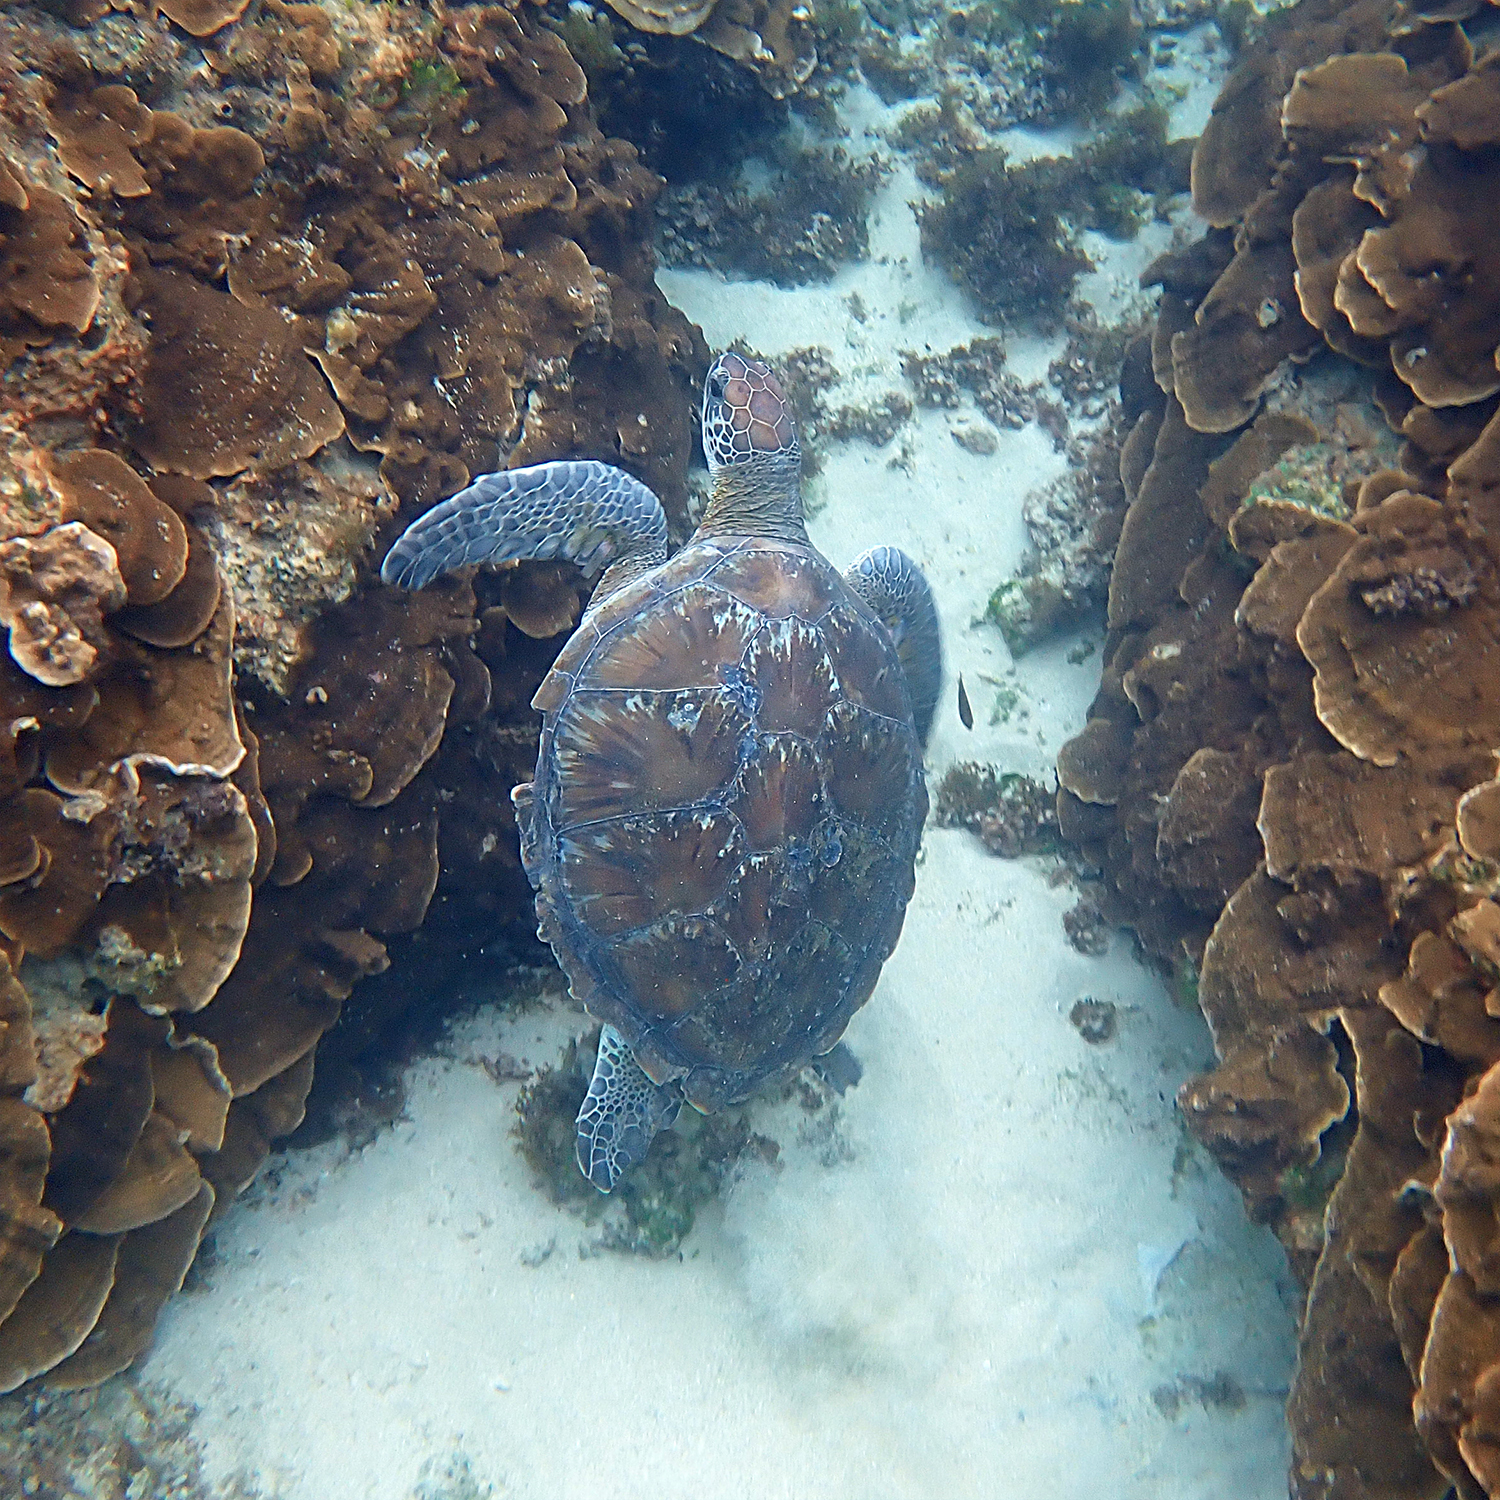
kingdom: Animalia
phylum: Chordata
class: Testudines
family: Cheloniidae
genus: Chelonia
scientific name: Chelonia mydas
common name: Green turtle
